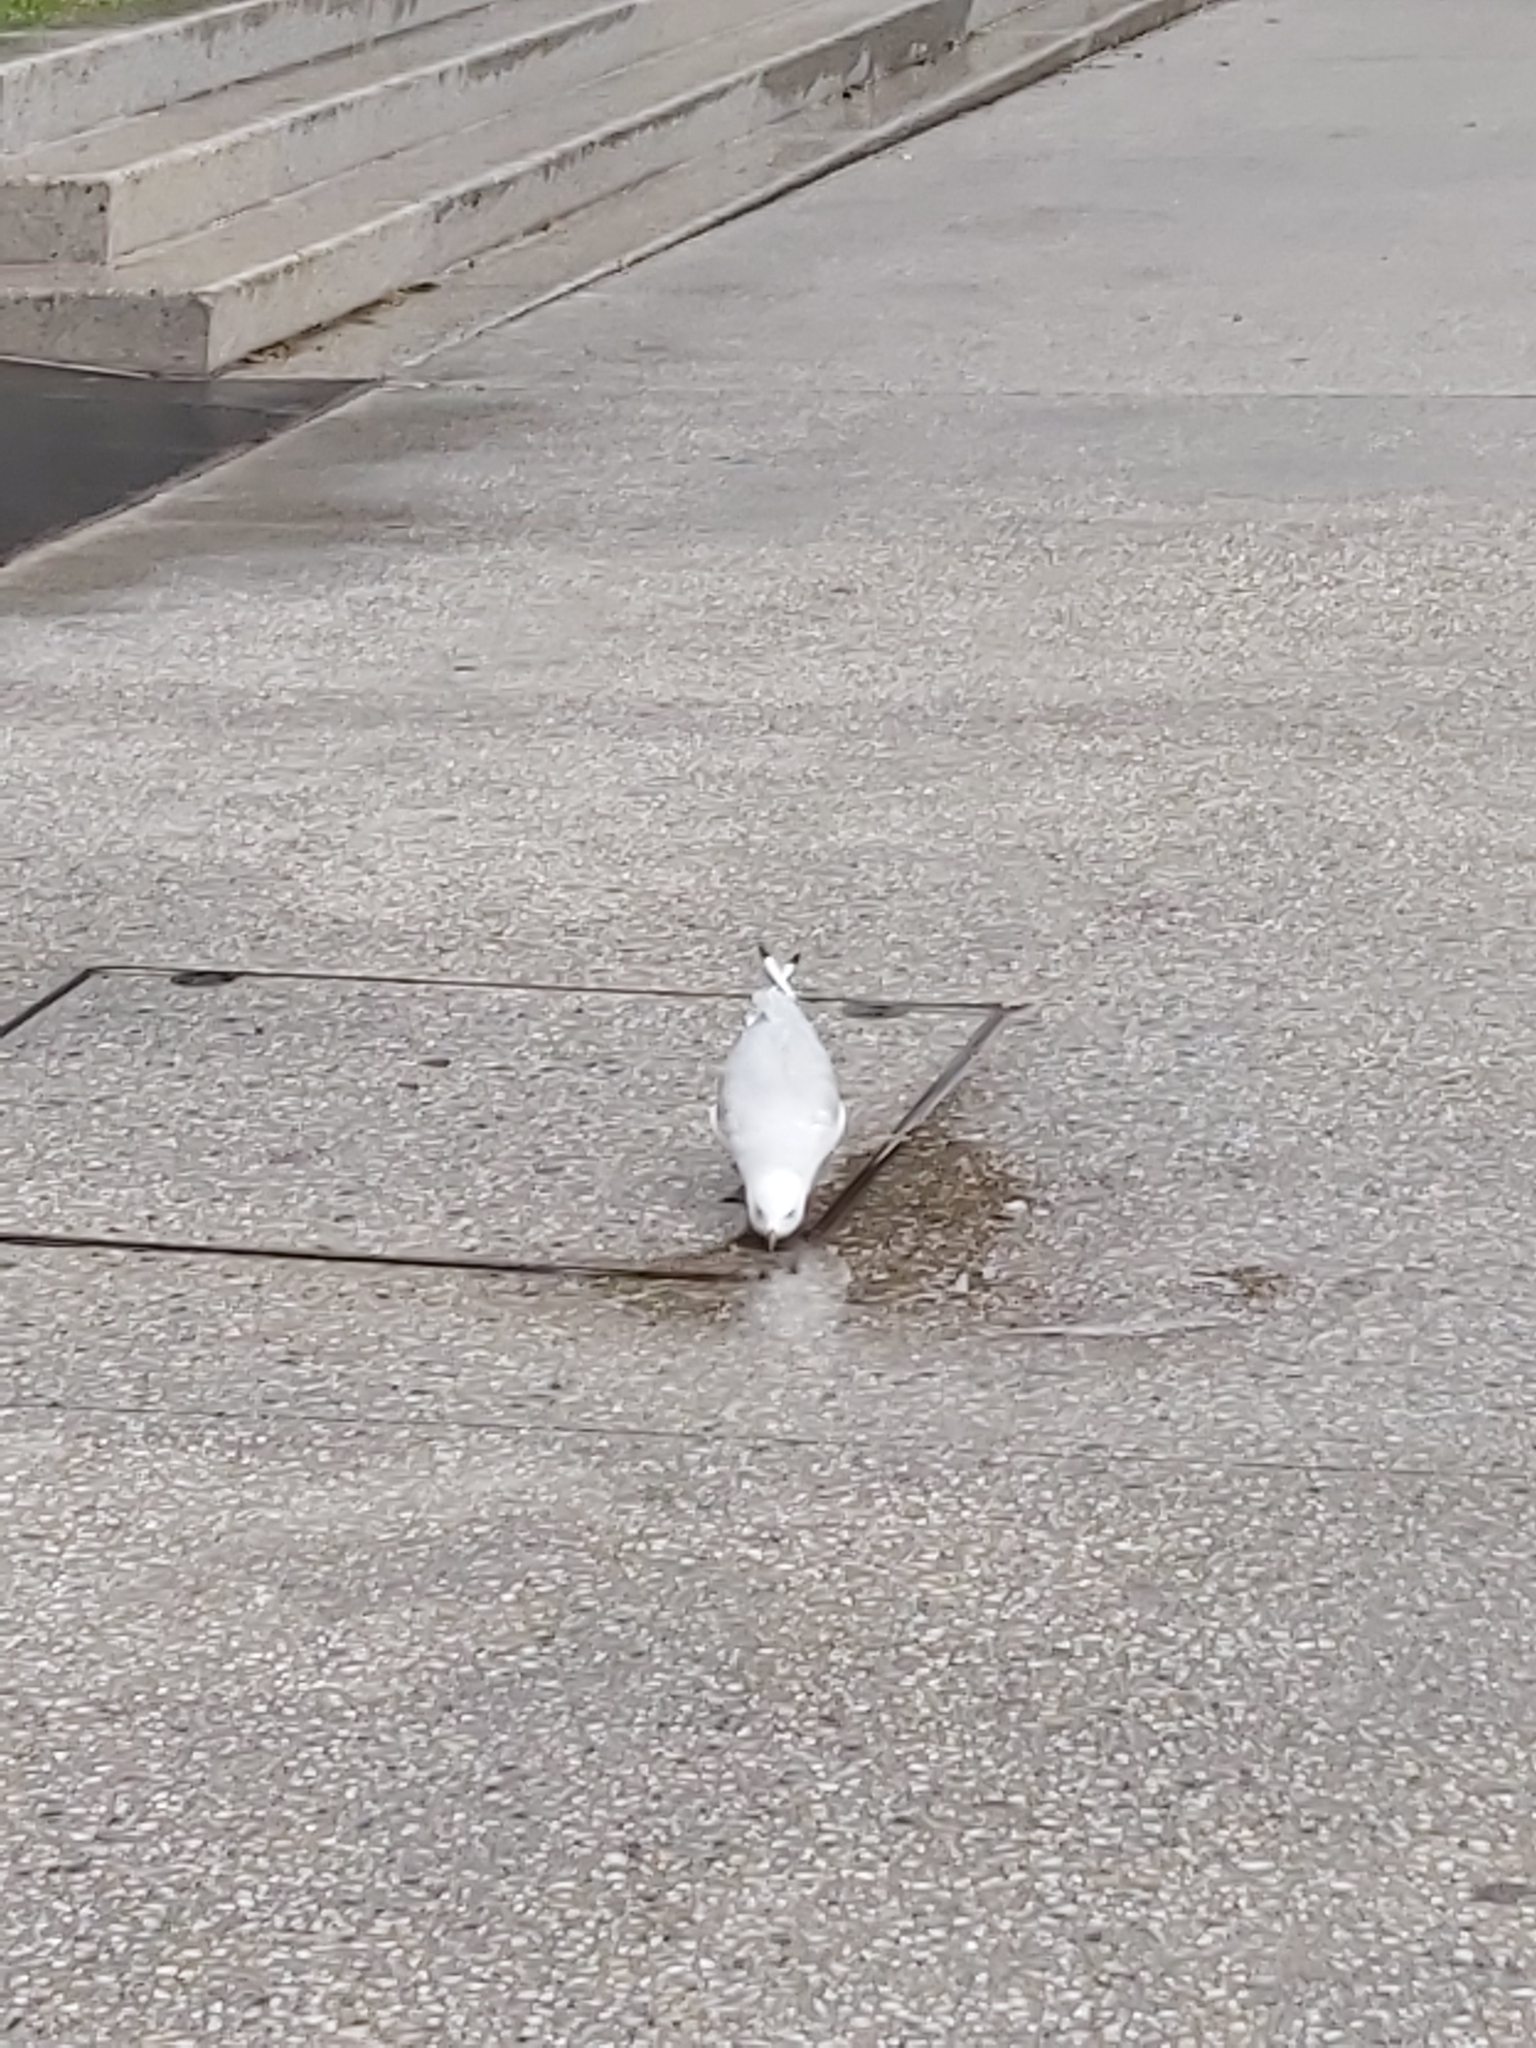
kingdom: Animalia
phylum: Chordata
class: Aves
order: Charadriiformes
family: Laridae
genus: Chroicocephalus
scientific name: Chroicocephalus novaehollandiae
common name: Silver gull
